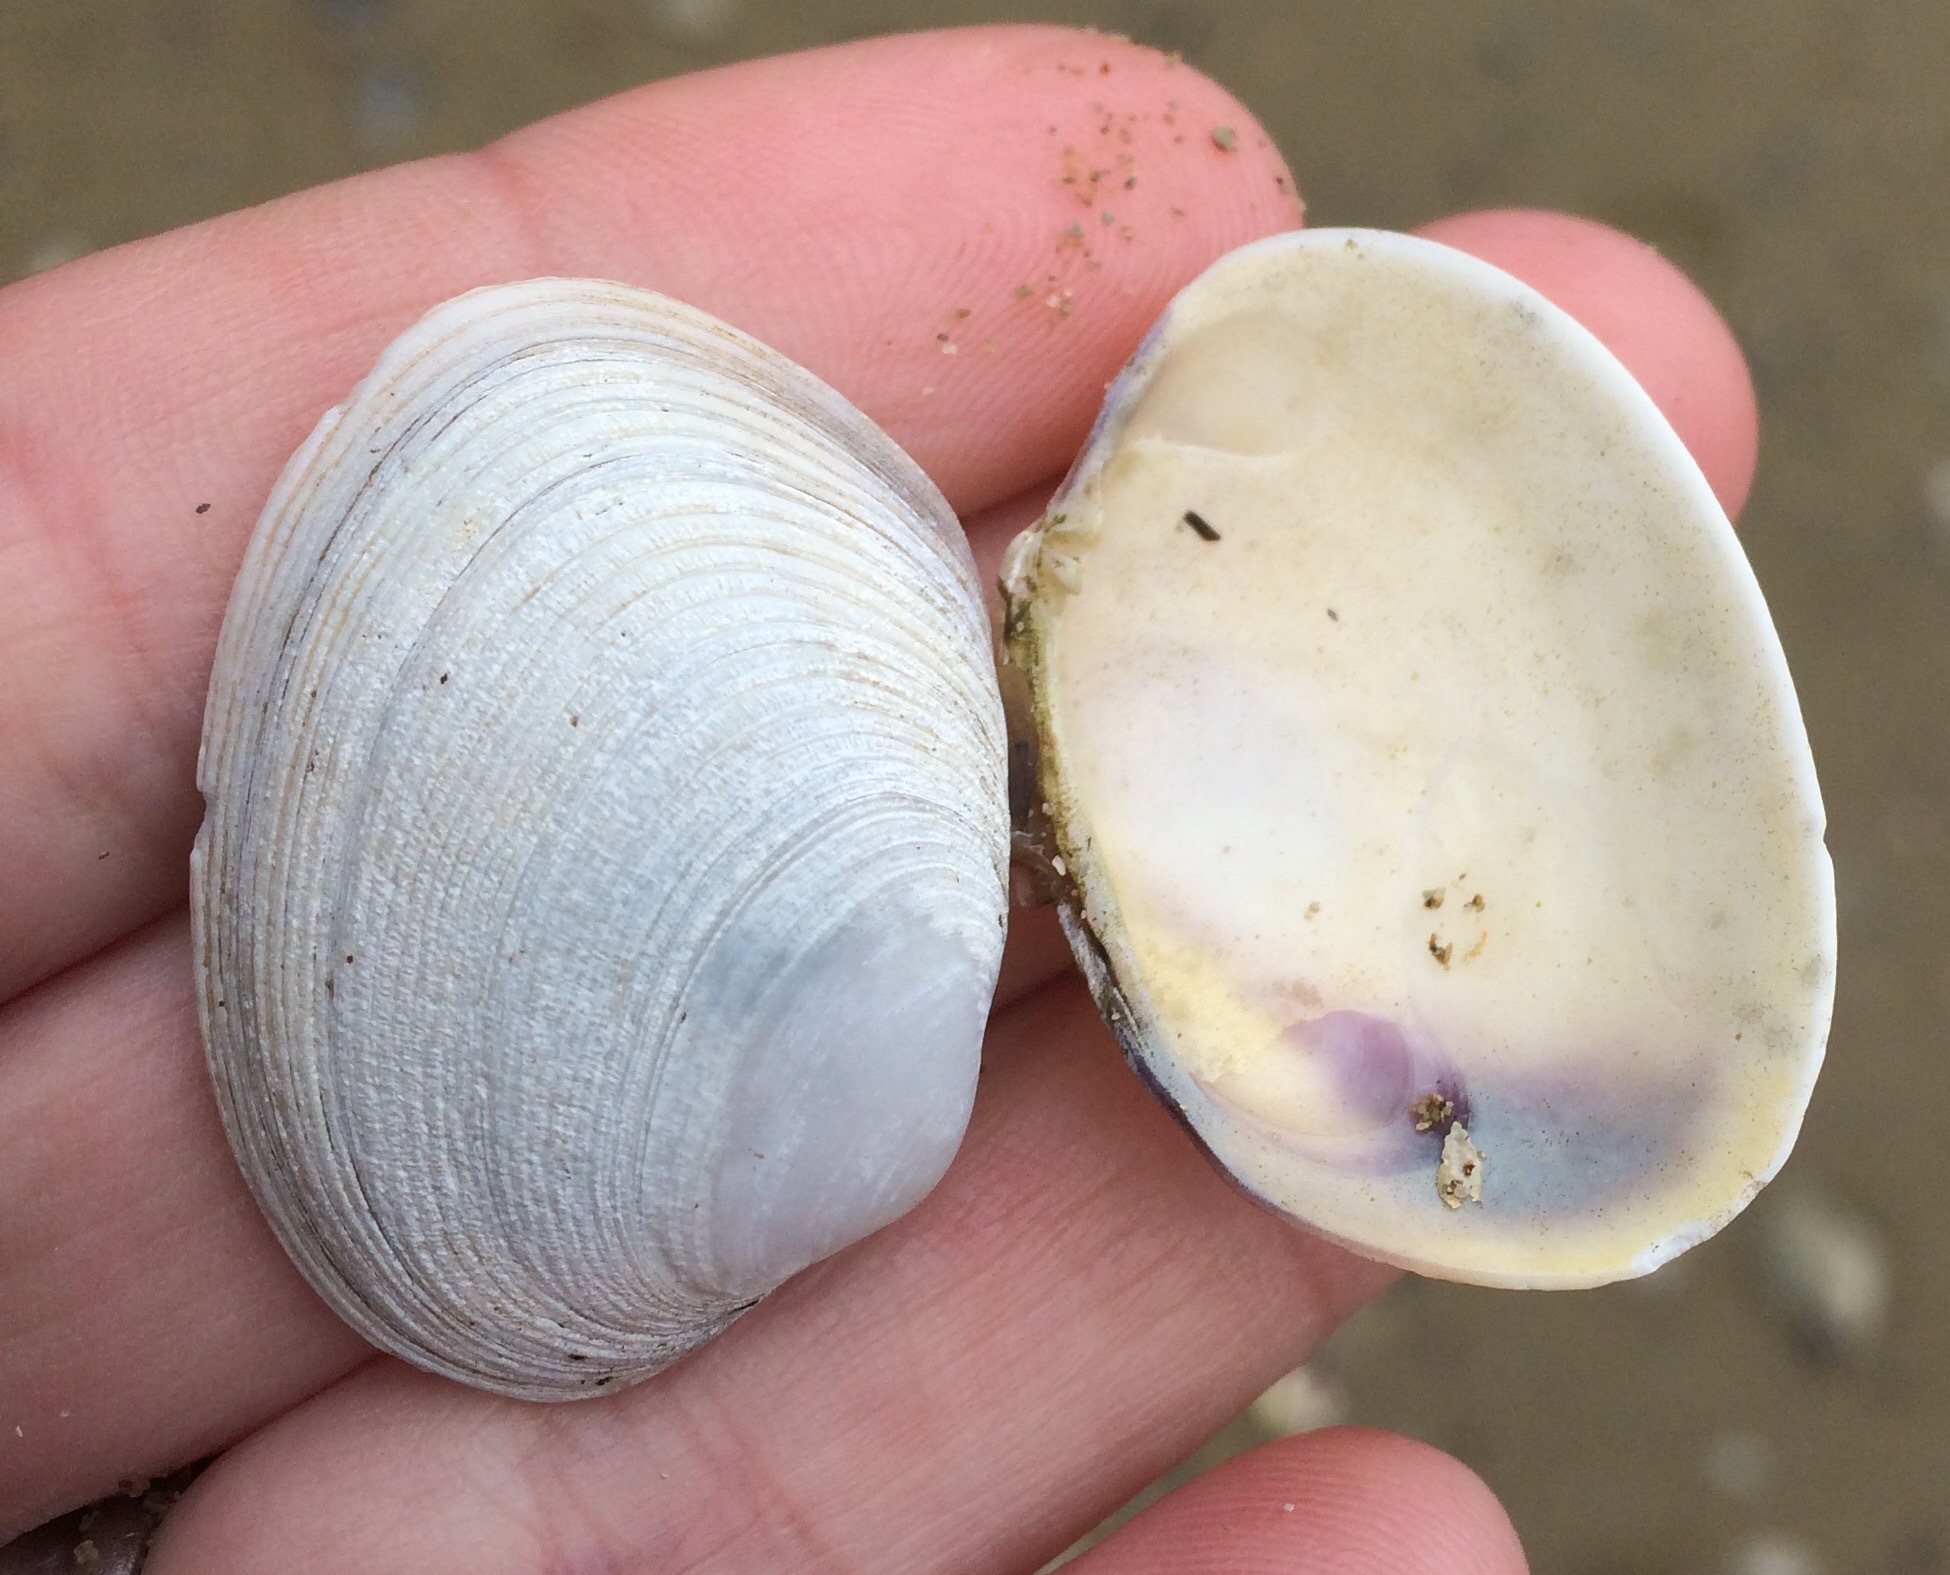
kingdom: Animalia
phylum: Mollusca
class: Bivalvia
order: Venerida
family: Veneridae
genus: Venerupis
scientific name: Venerupis largillierti
